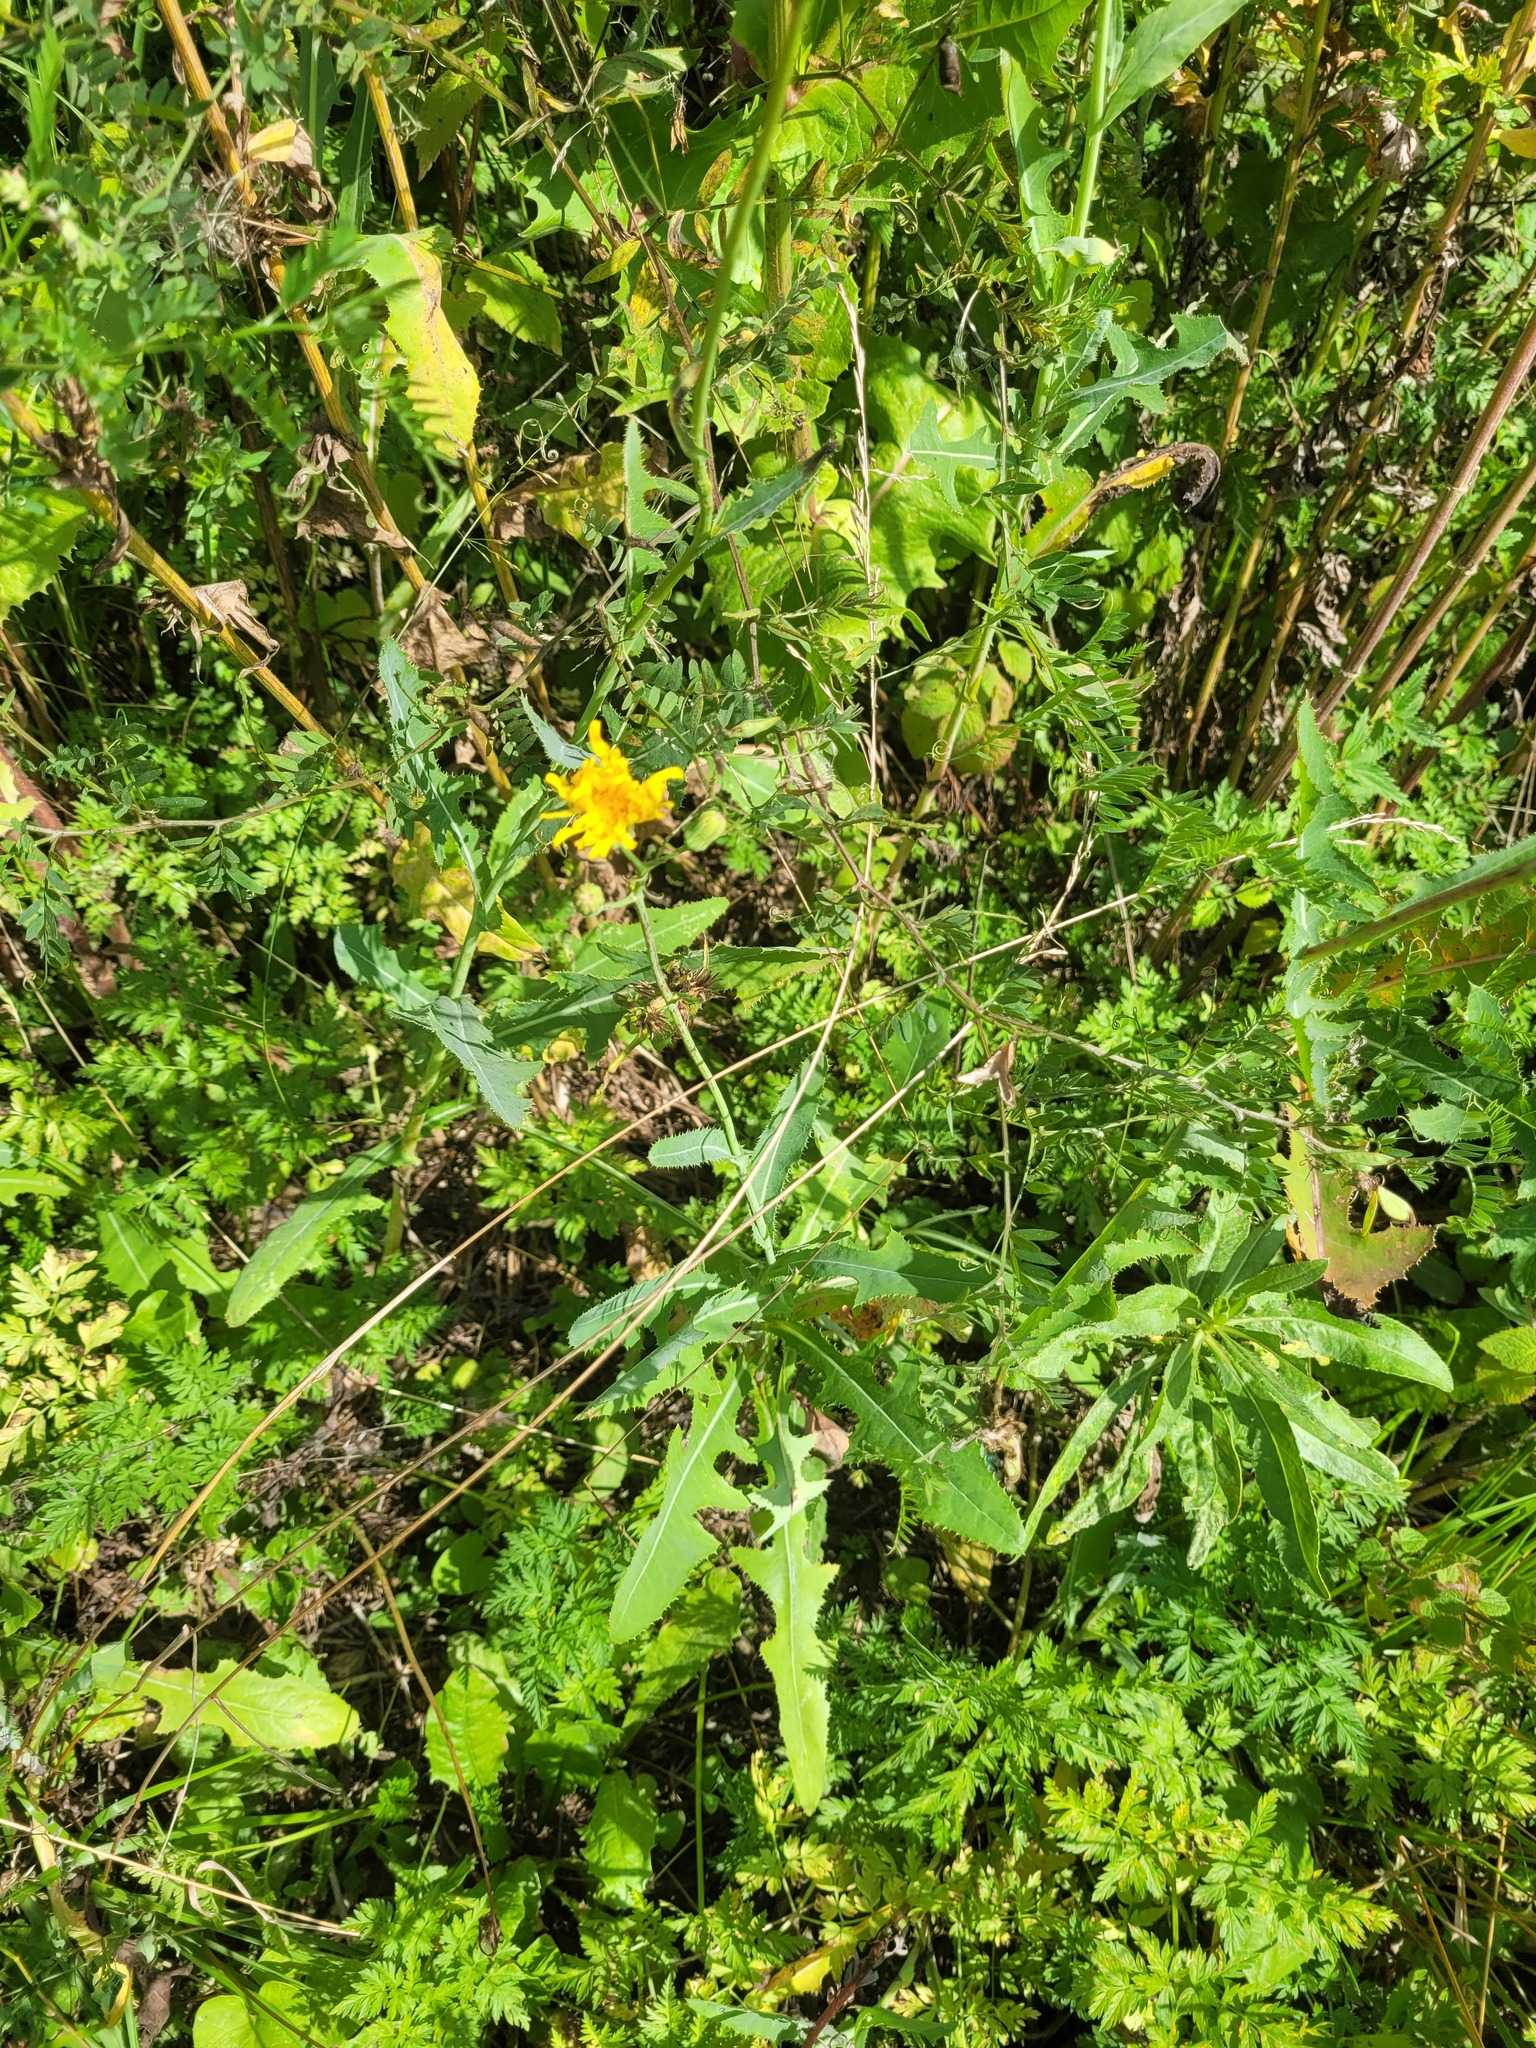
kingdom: Plantae
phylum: Tracheophyta
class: Magnoliopsida
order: Asterales
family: Asteraceae
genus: Sonchus
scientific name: Sonchus arvensis
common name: Perennial sow-thistle
